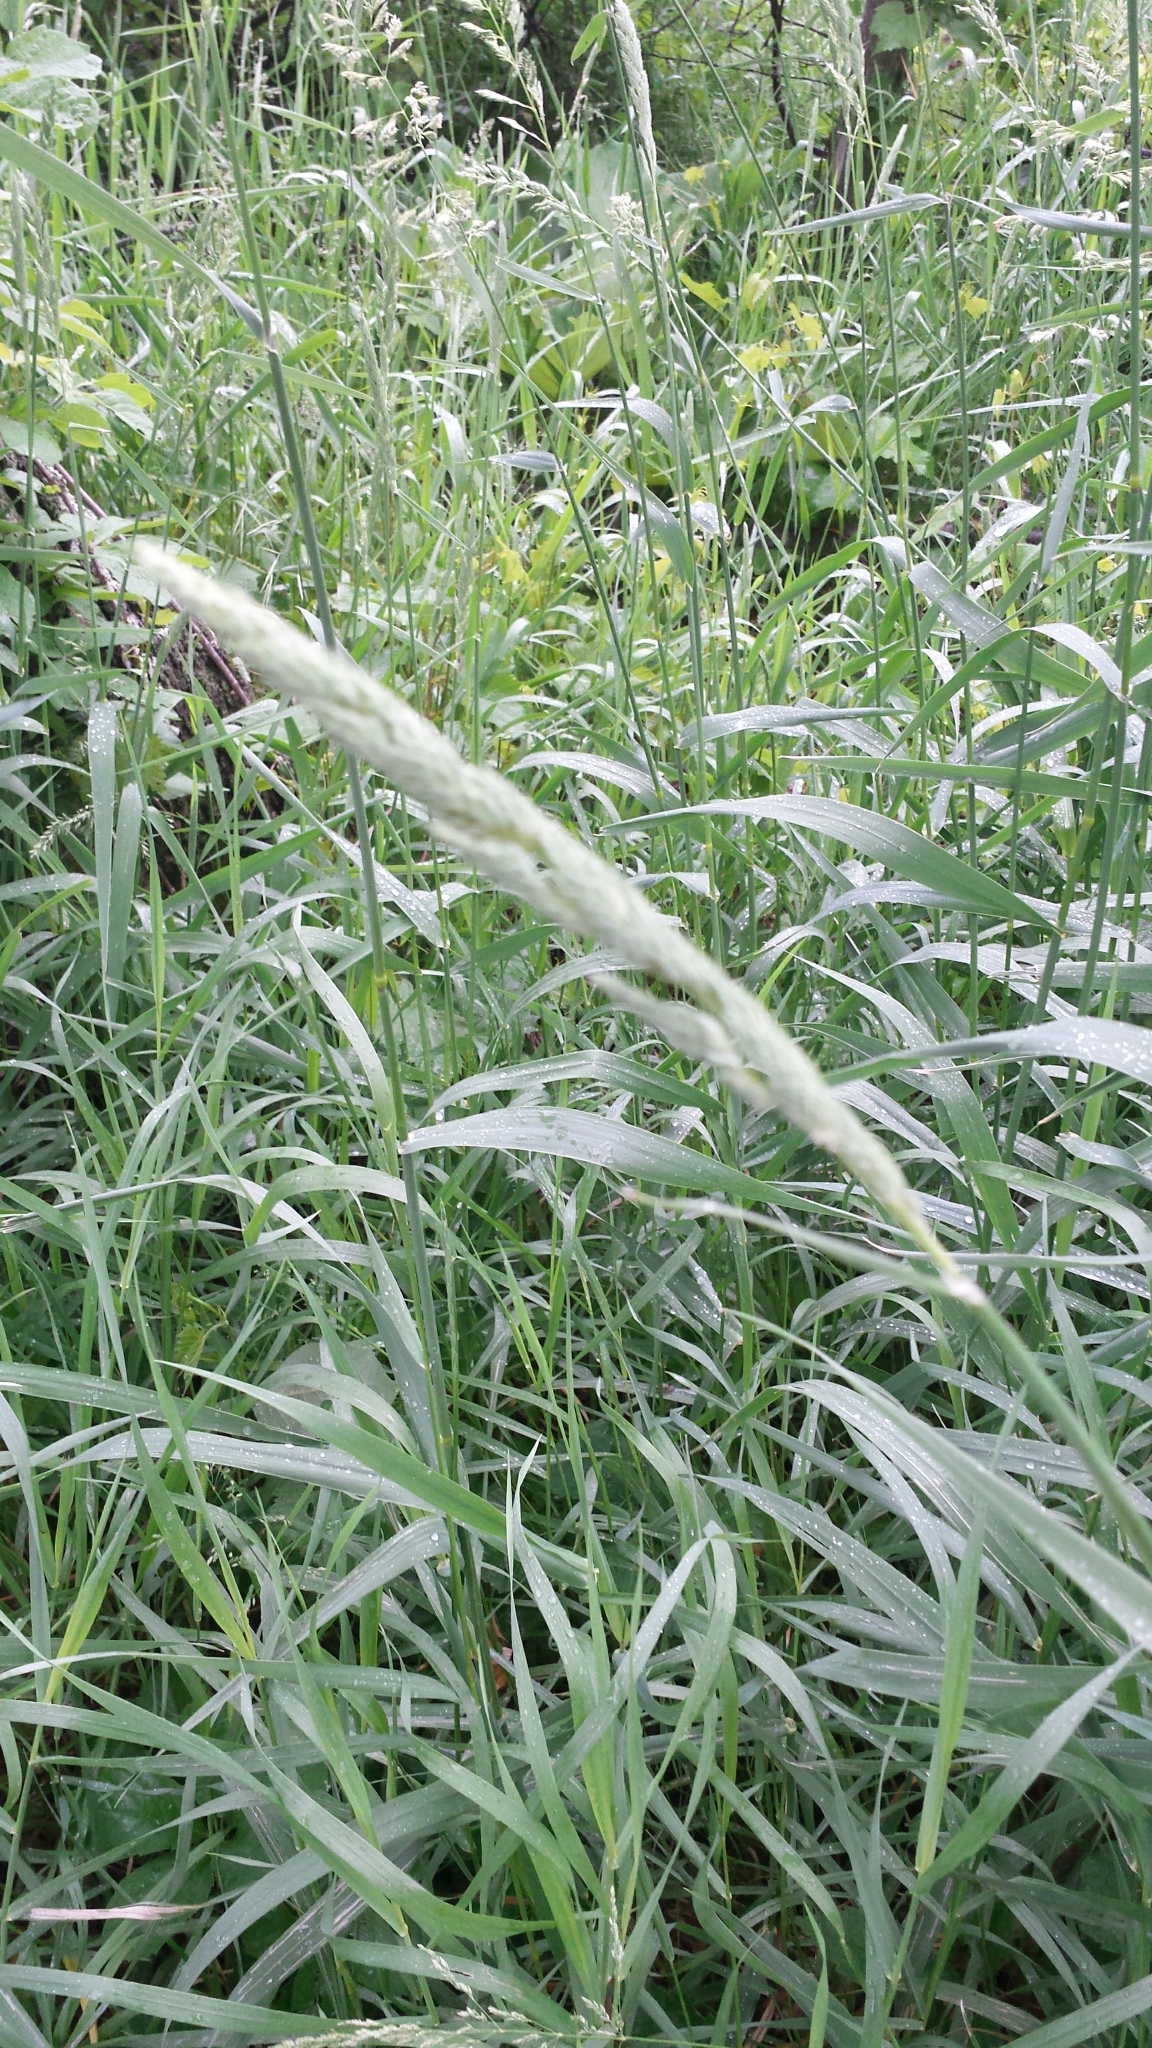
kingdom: Plantae
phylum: Tracheophyta
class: Liliopsida
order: Poales
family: Poaceae
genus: Phalaris
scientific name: Phalaris arundinacea
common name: Reed canary-grass
